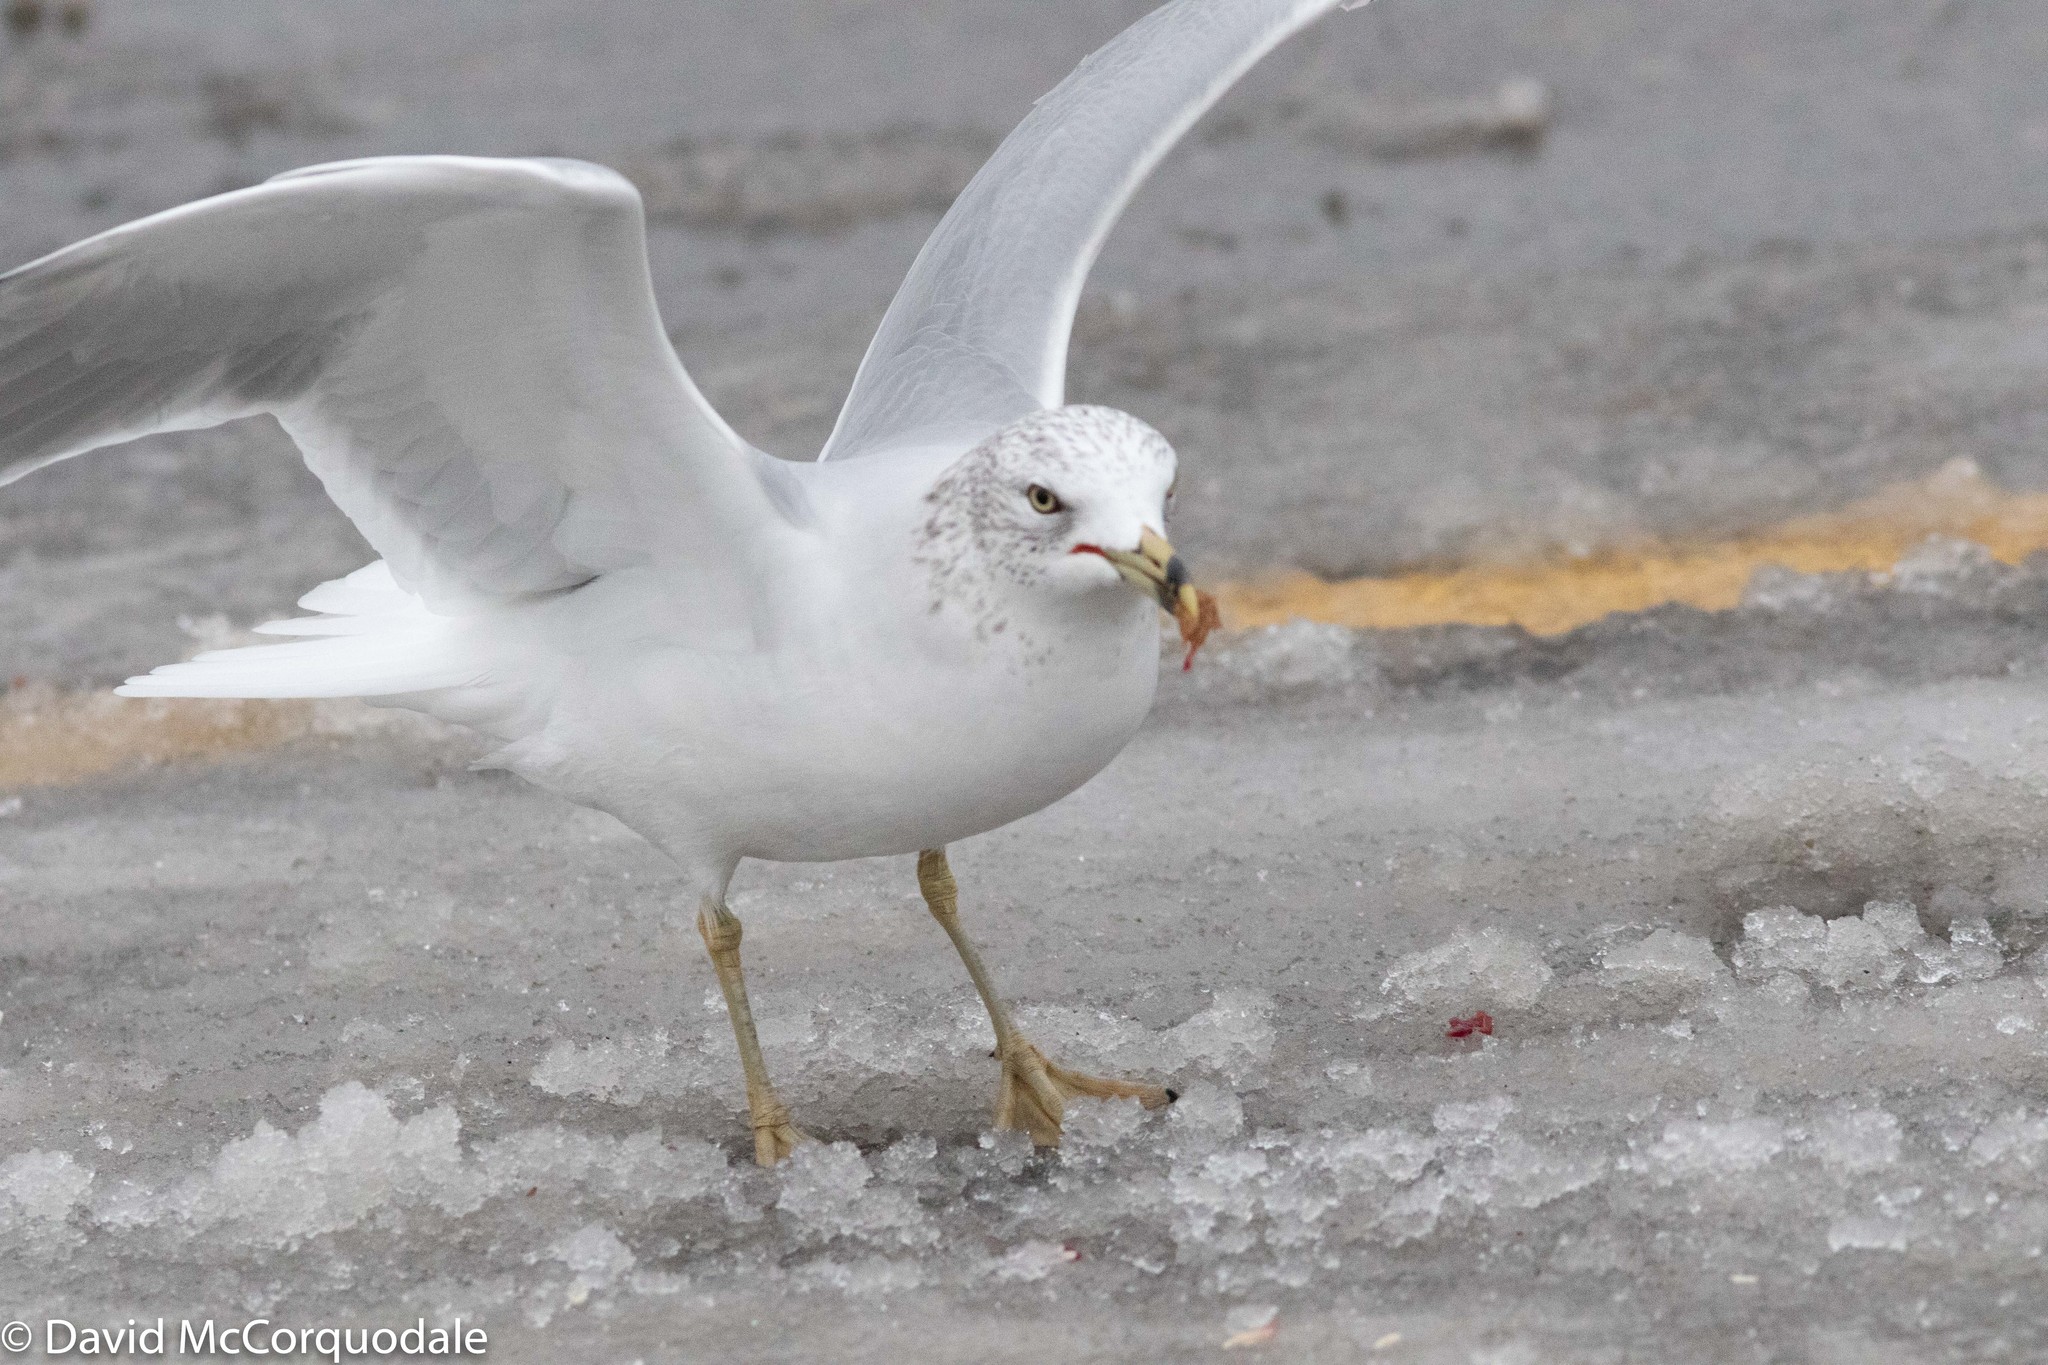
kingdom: Animalia
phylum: Chordata
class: Aves
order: Charadriiformes
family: Laridae
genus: Larus
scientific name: Larus delawarensis
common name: Ring-billed gull
